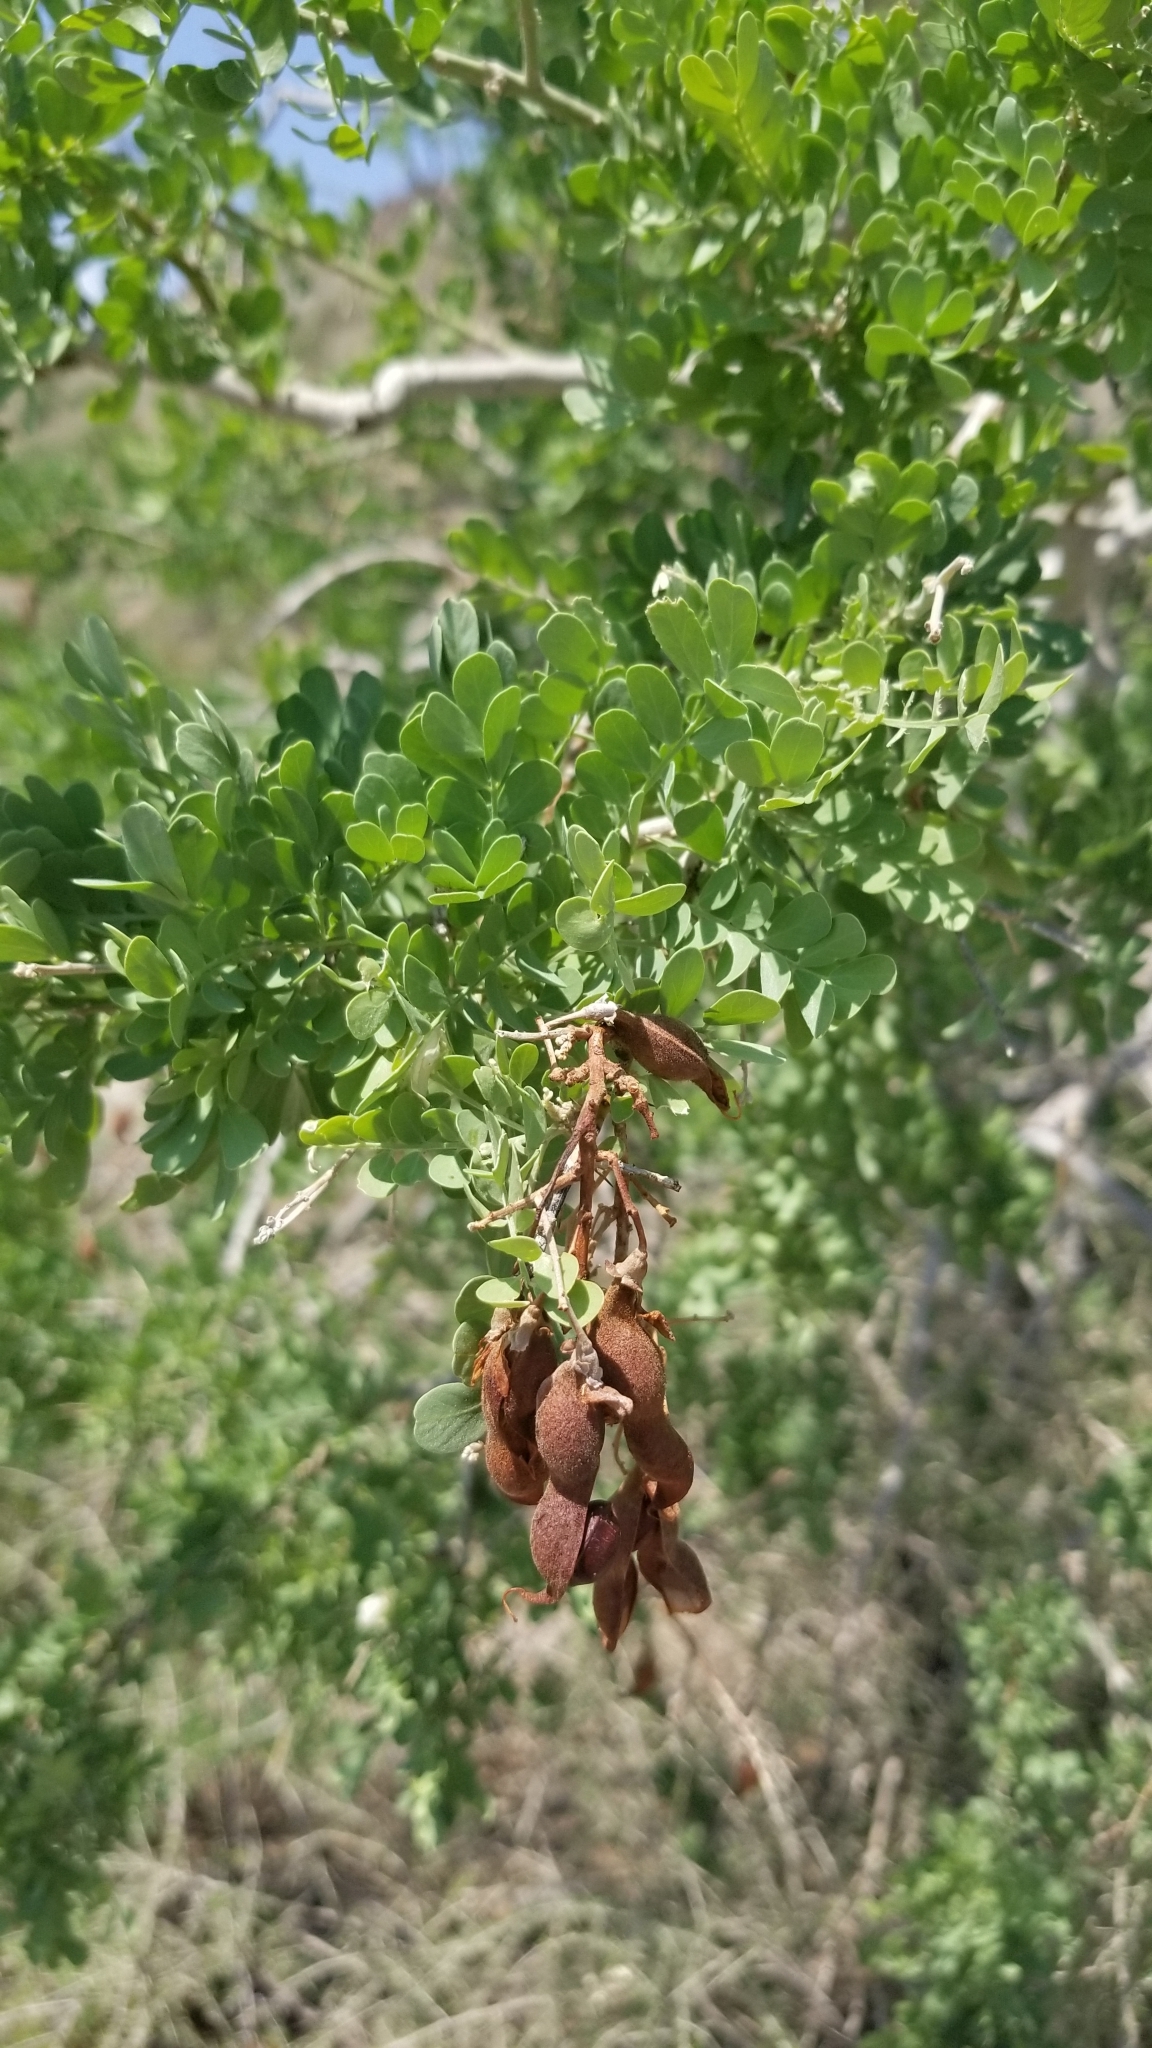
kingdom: Plantae
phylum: Tracheophyta
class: Magnoliopsida
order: Fabales
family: Fabaceae
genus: Olneya
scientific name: Olneya tesota
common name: Desert ironwood
